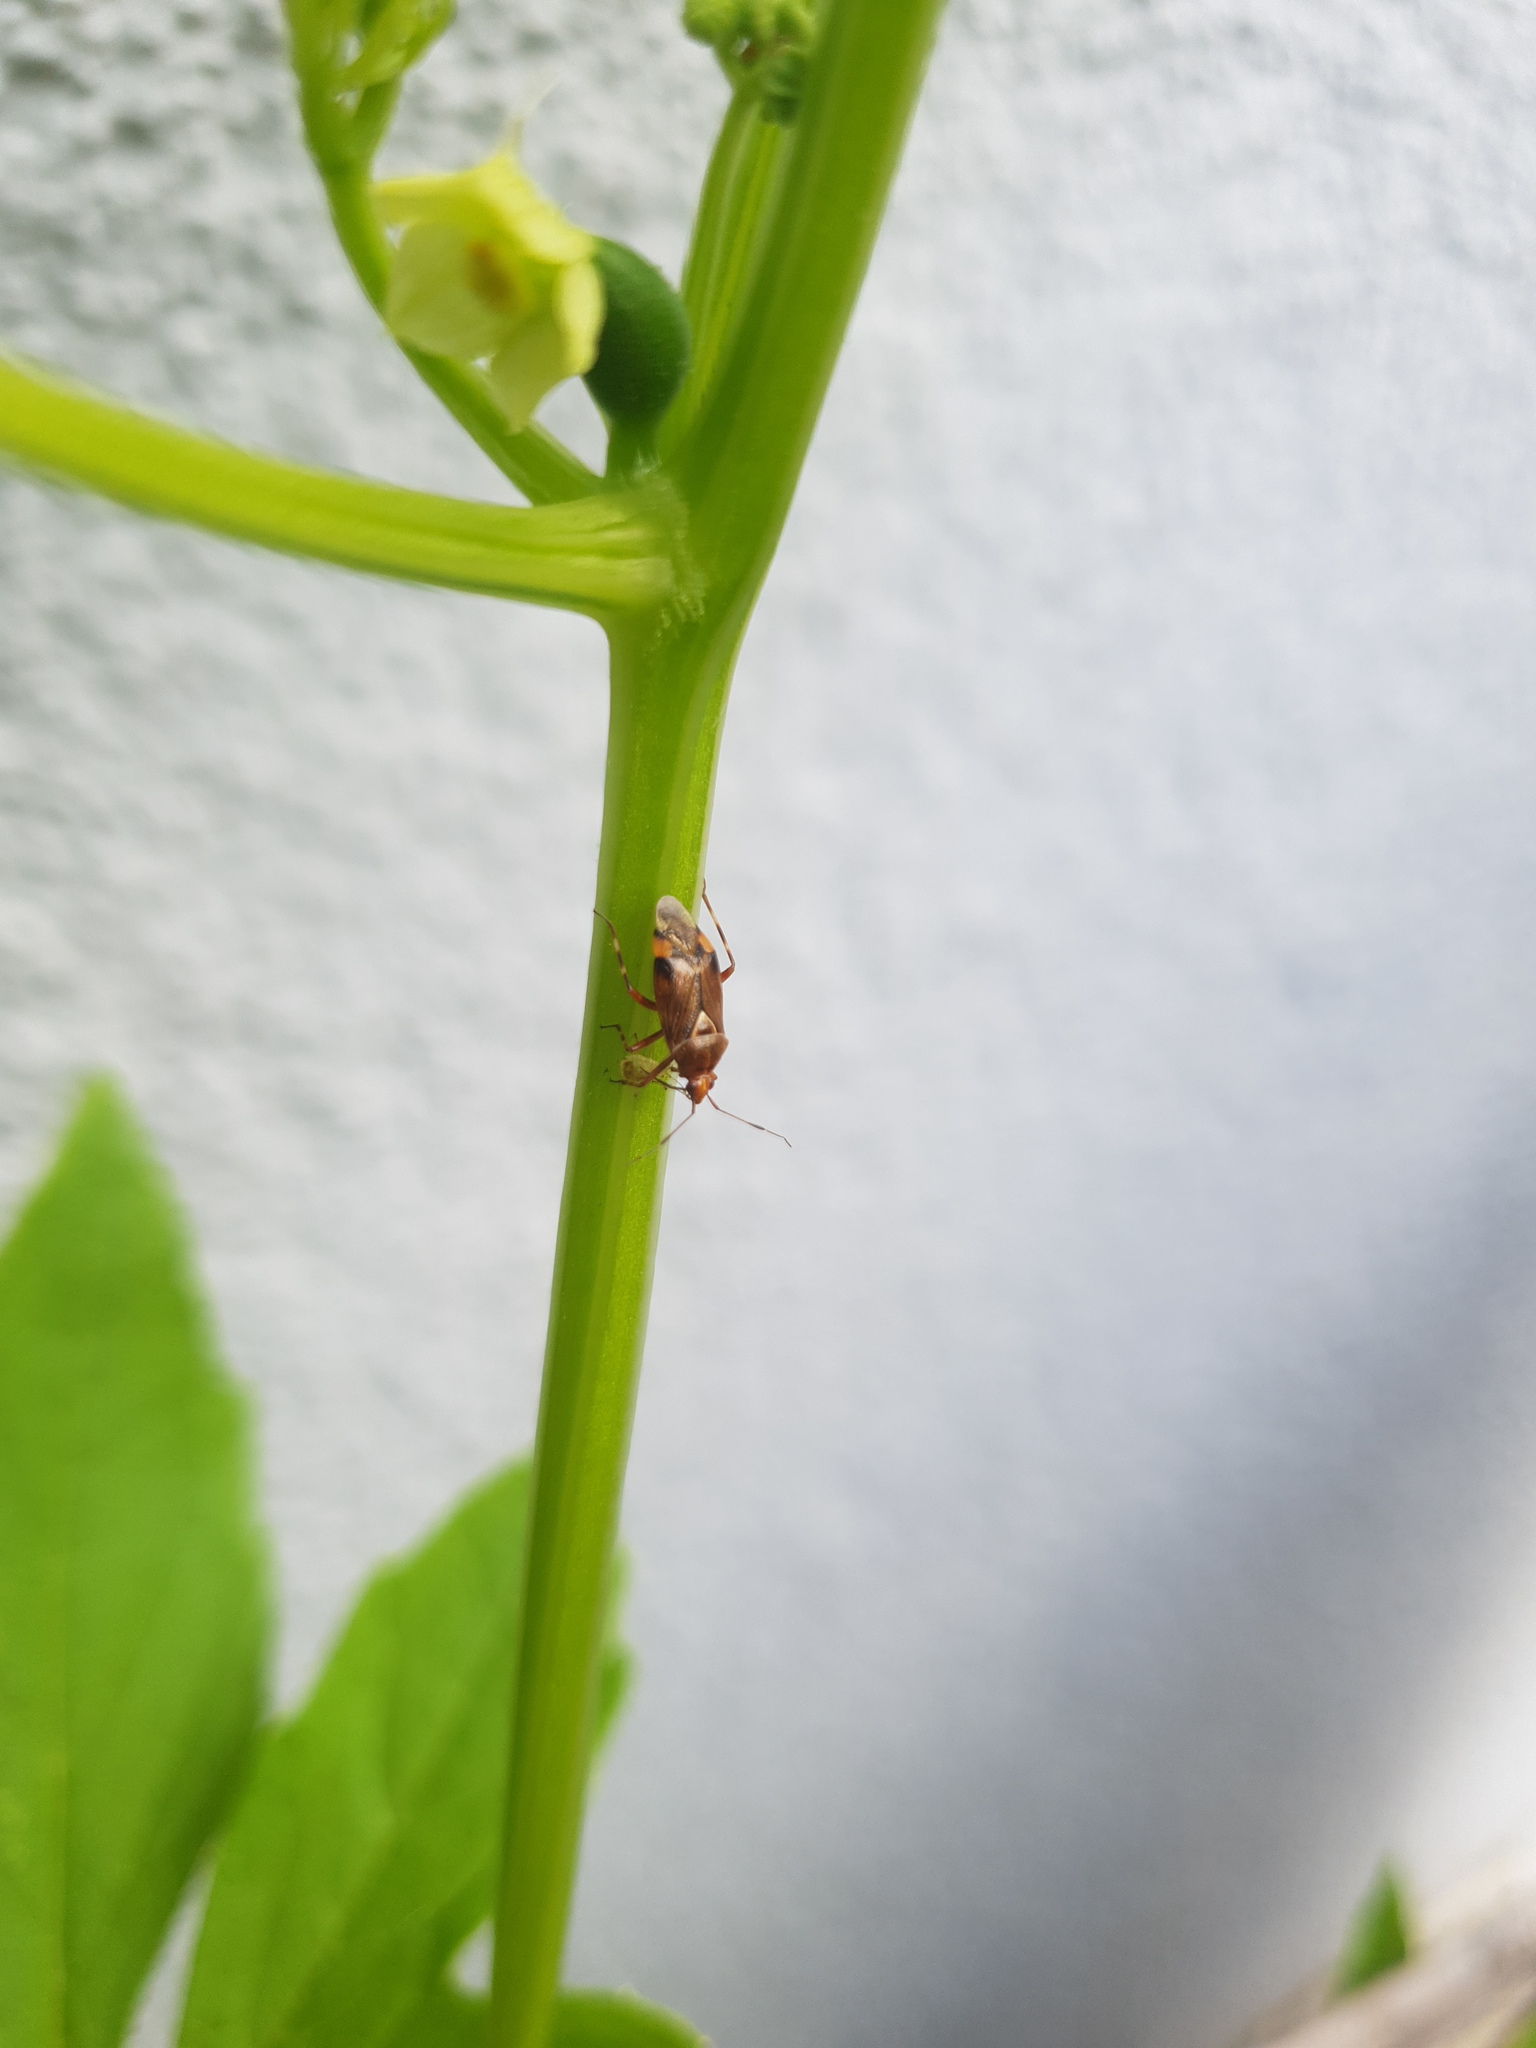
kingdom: Animalia
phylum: Arthropoda
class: Insecta
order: Hemiptera
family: Miridae
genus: Deraeocoris
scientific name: Deraeocoris flavilinea
